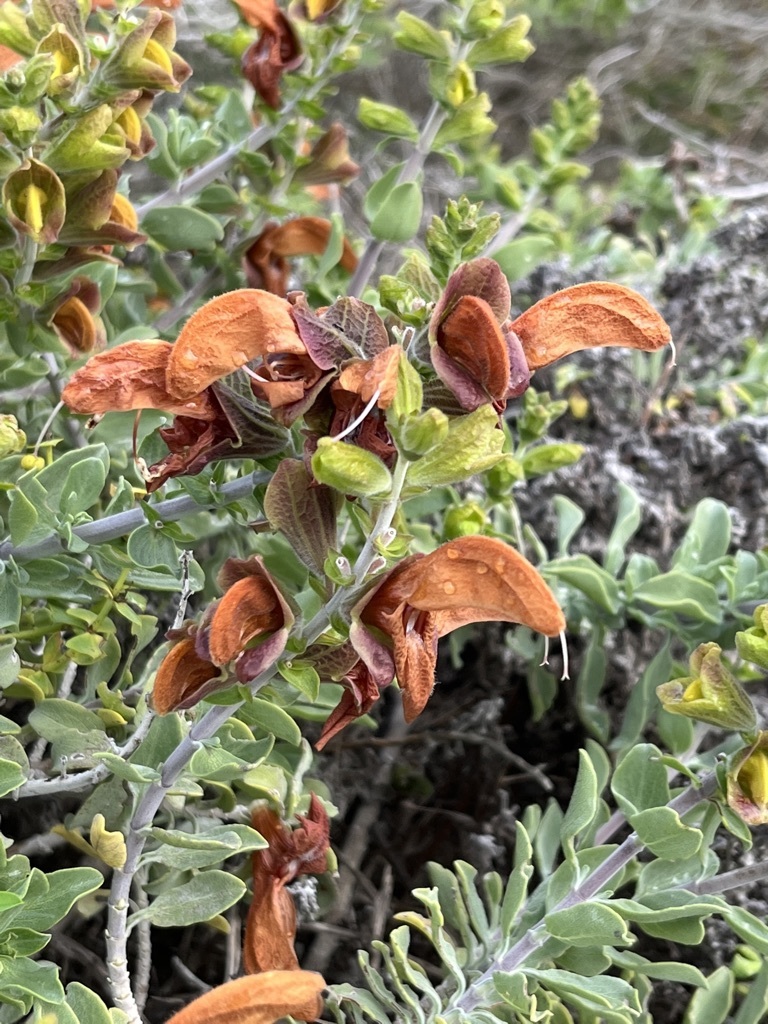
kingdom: Plantae
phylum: Tracheophyta
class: Magnoliopsida
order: Lamiales
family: Lamiaceae
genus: Salvia
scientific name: Salvia aurea
